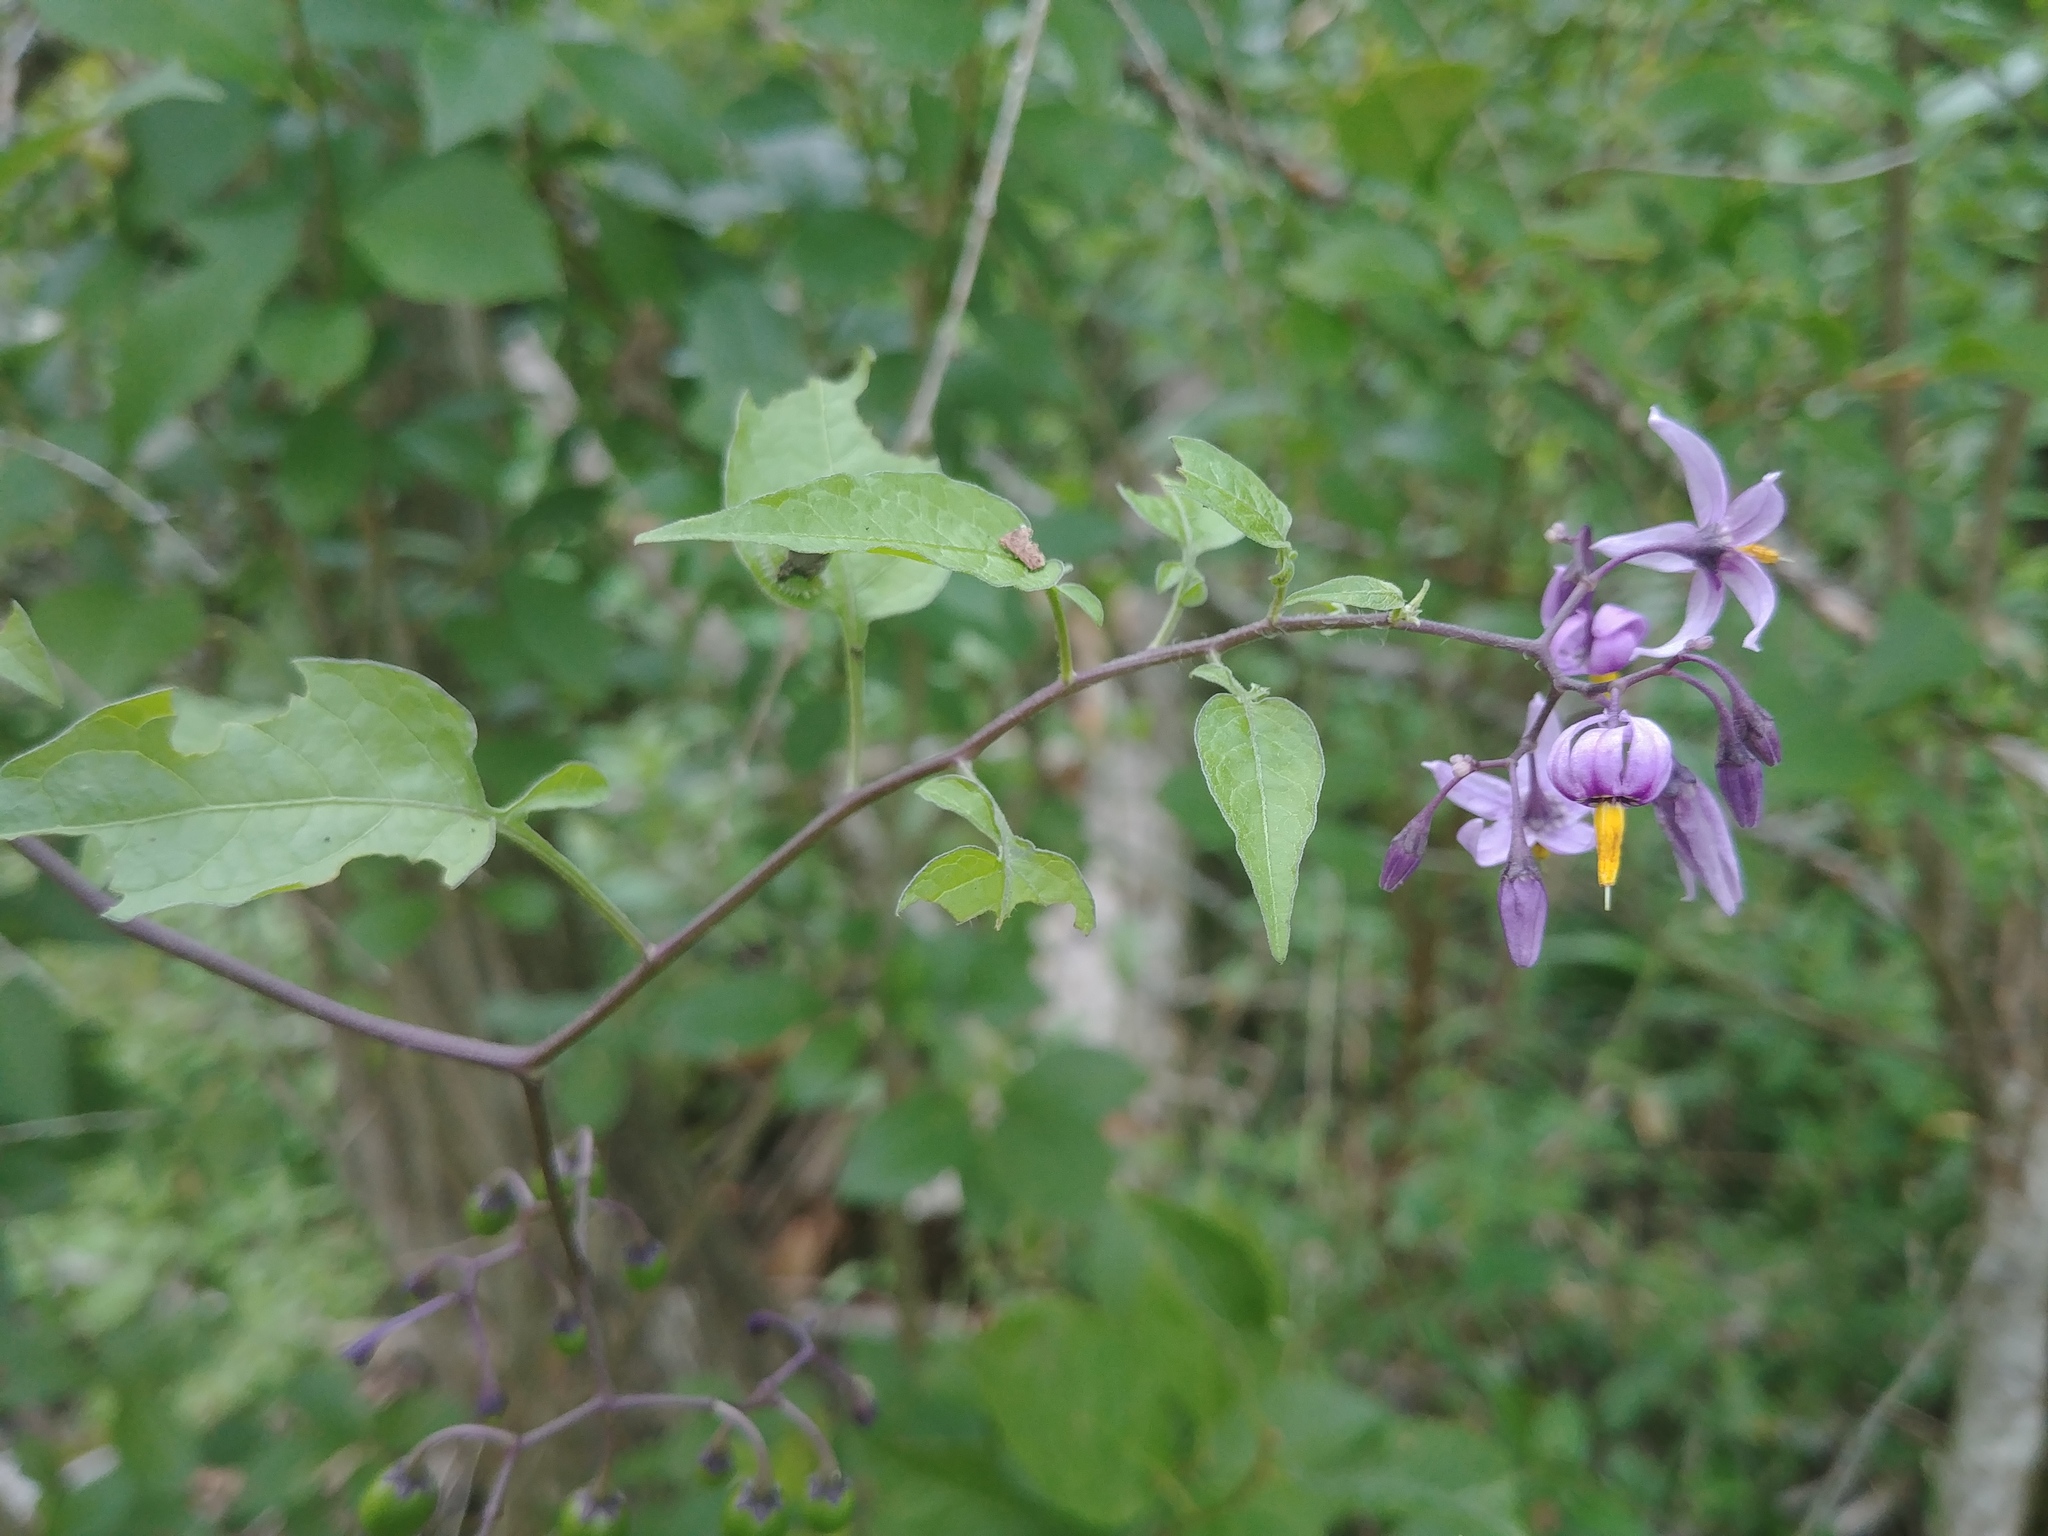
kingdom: Plantae
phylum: Tracheophyta
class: Magnoliopsida
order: Solanales
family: Solanaceae
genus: Solanum
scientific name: Solanum dulcamara
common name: Climbing nightshade
